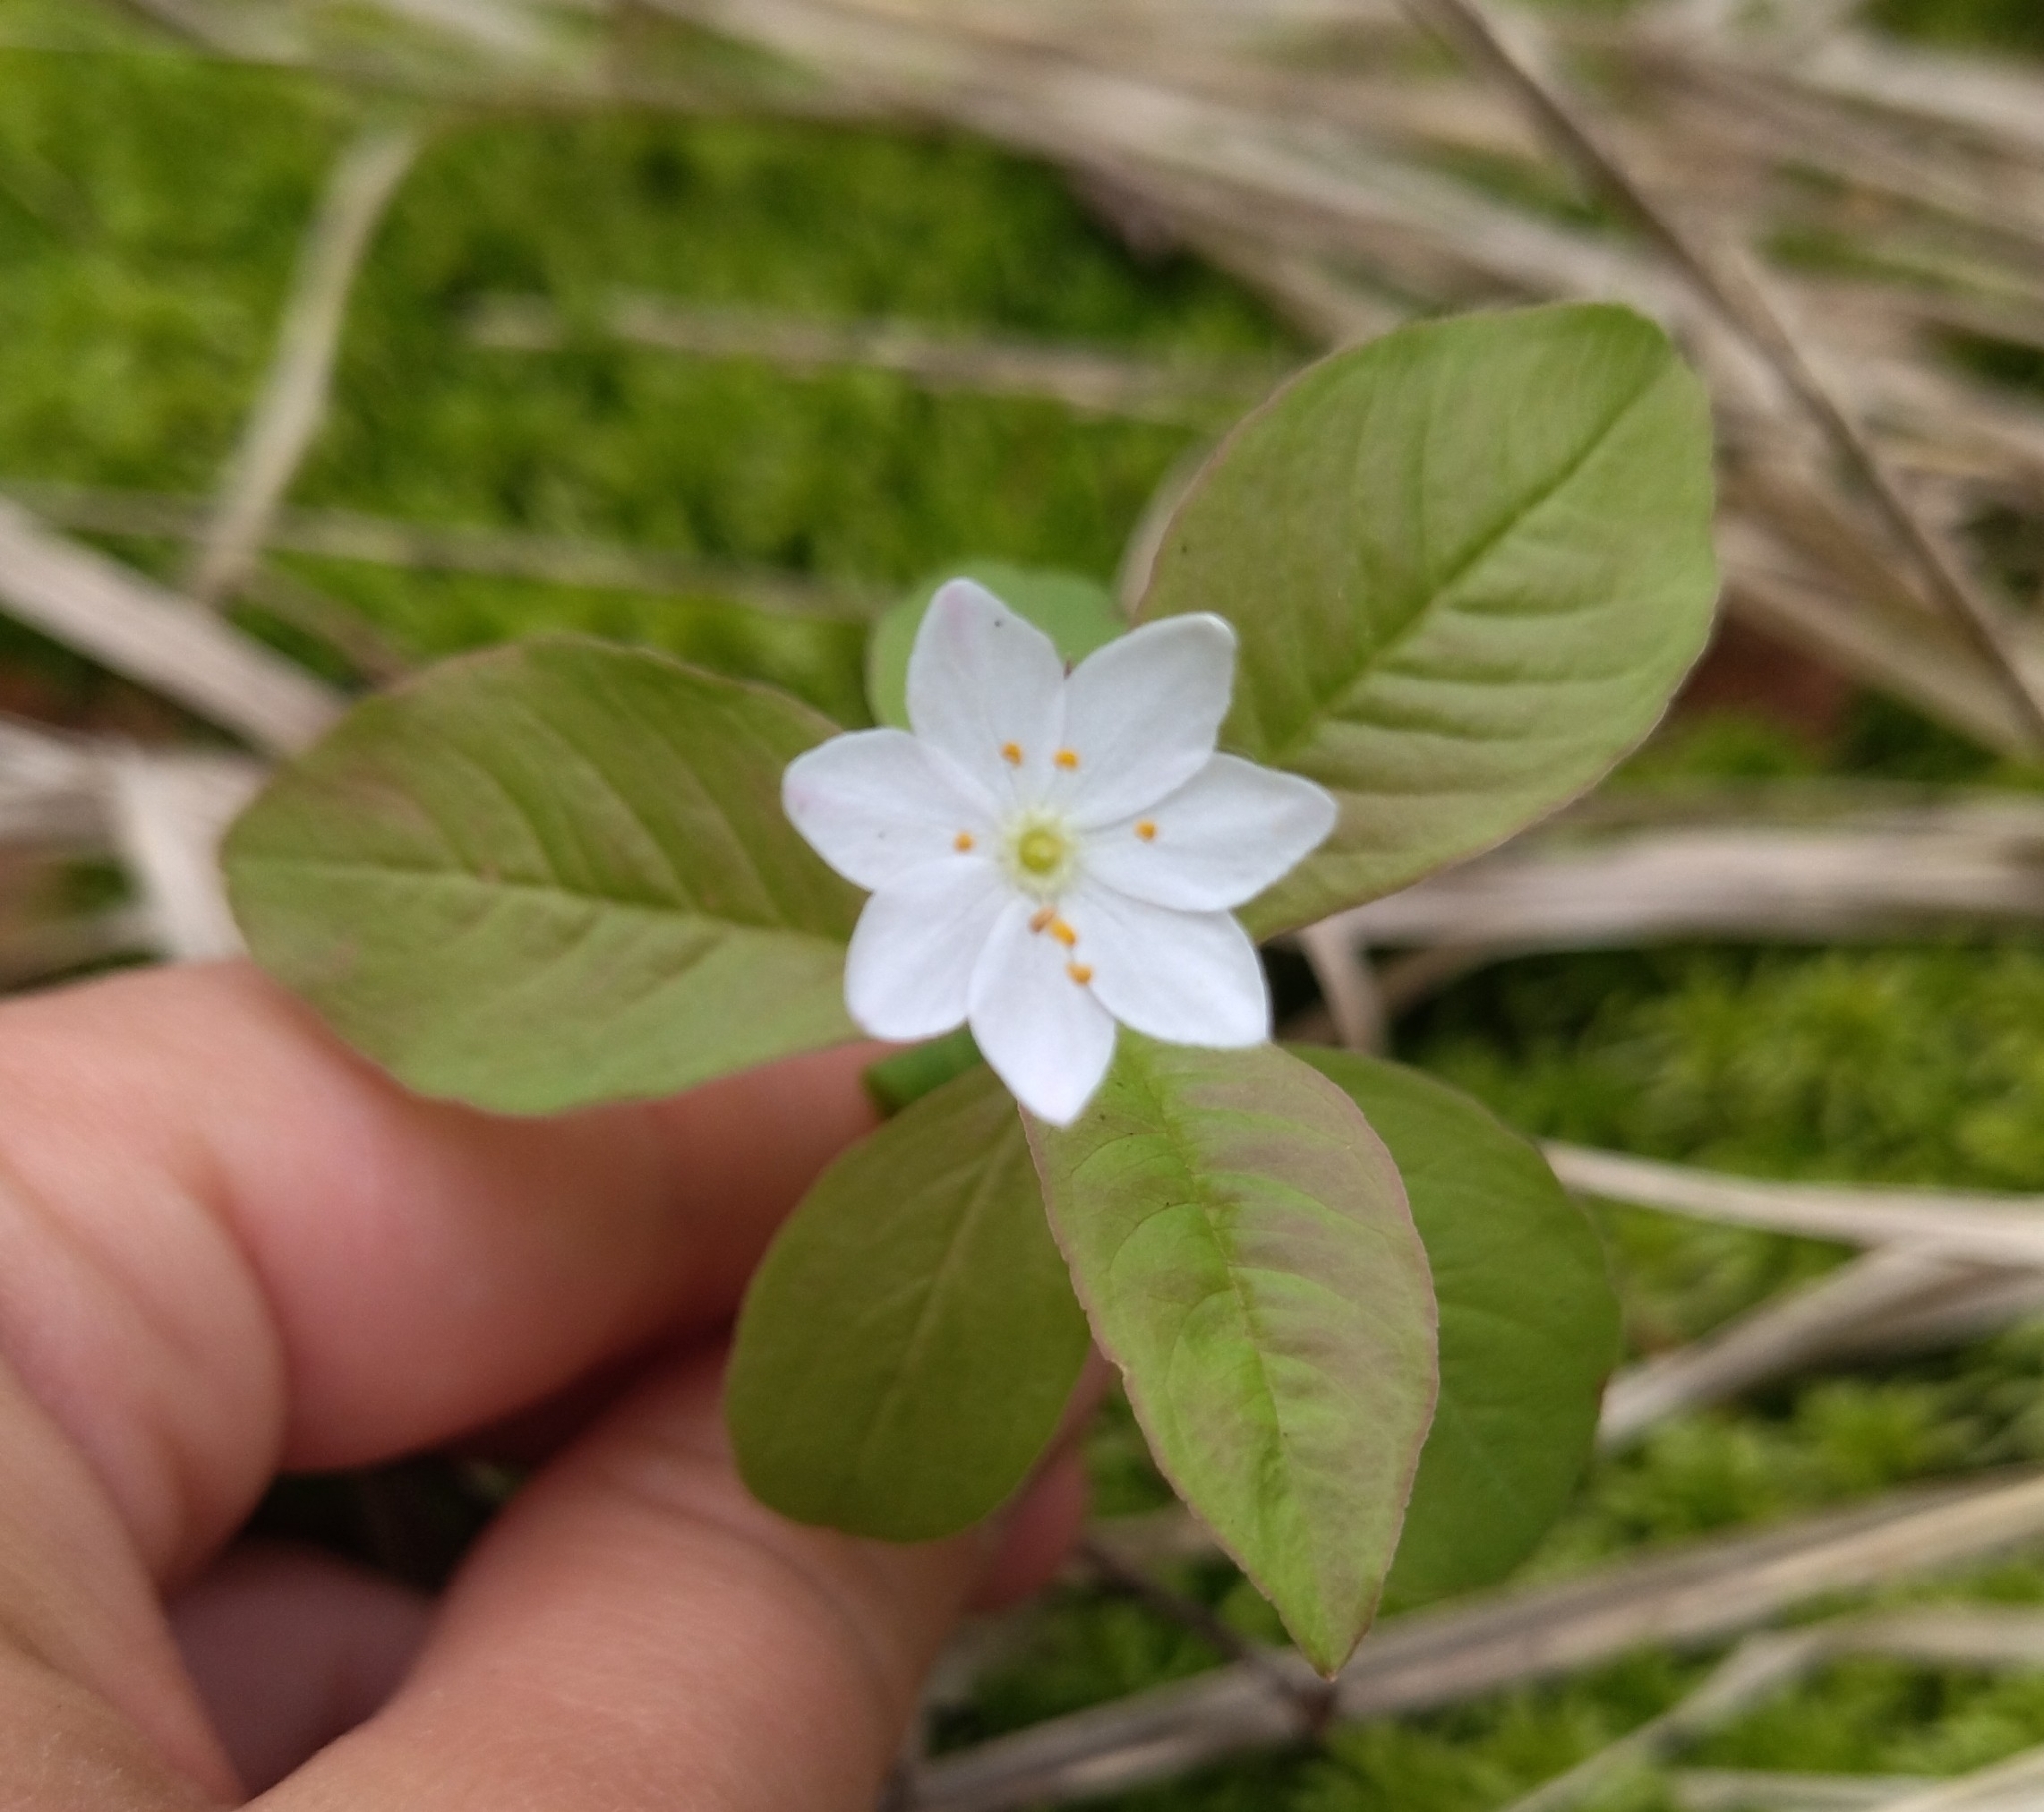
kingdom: Plantae
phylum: Tracheophyta
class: Magnoliopsida
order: Ericales
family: Primulaceae
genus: Lysimachia
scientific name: Lysimachia europaea
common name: Arctic starflower
